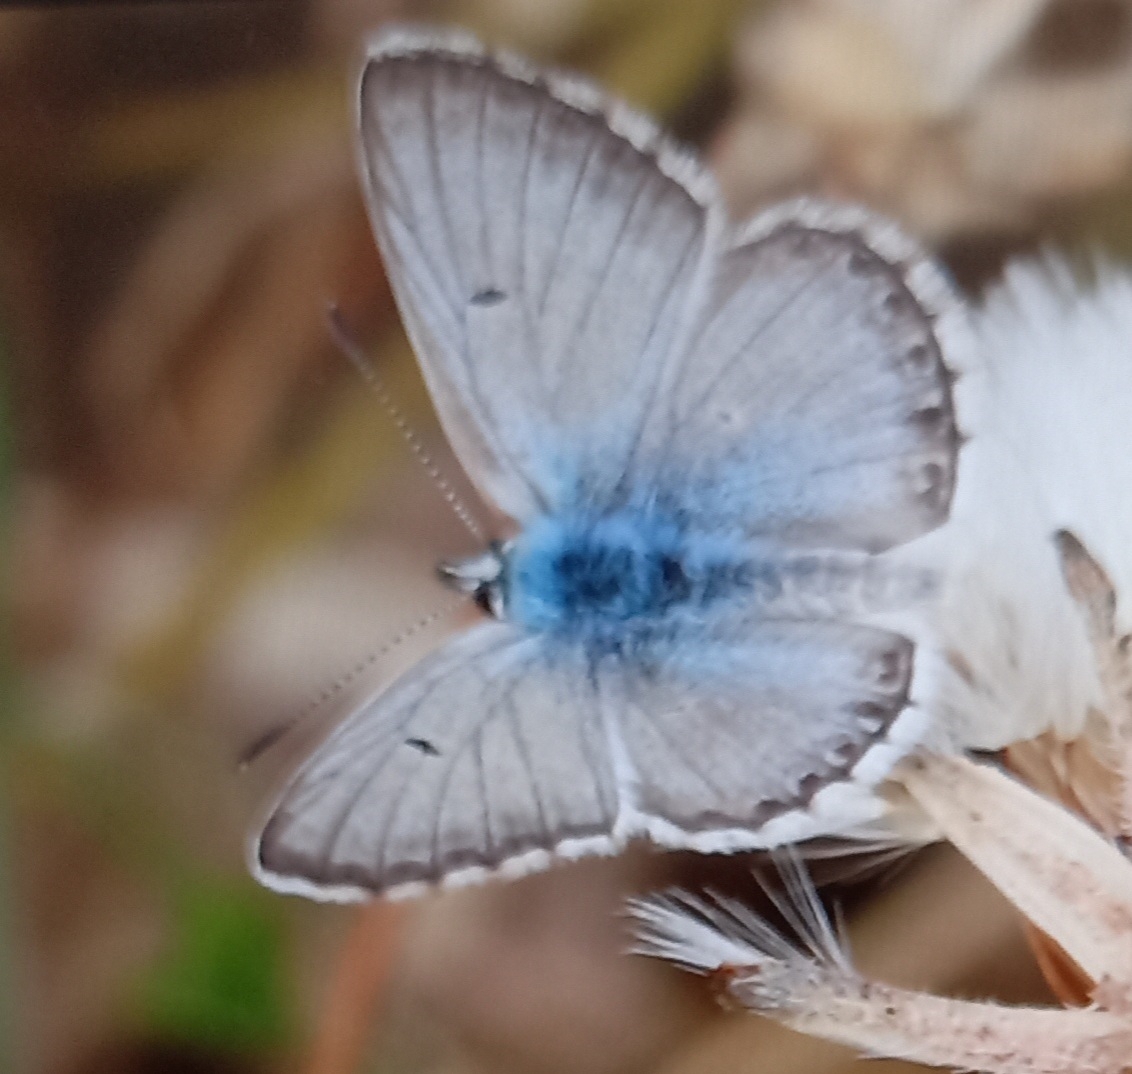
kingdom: Animalia
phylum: Arthropoda
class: Insecta
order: Lepidoptera
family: Lycaenidae
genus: Agriades
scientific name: Agriades corydonius
